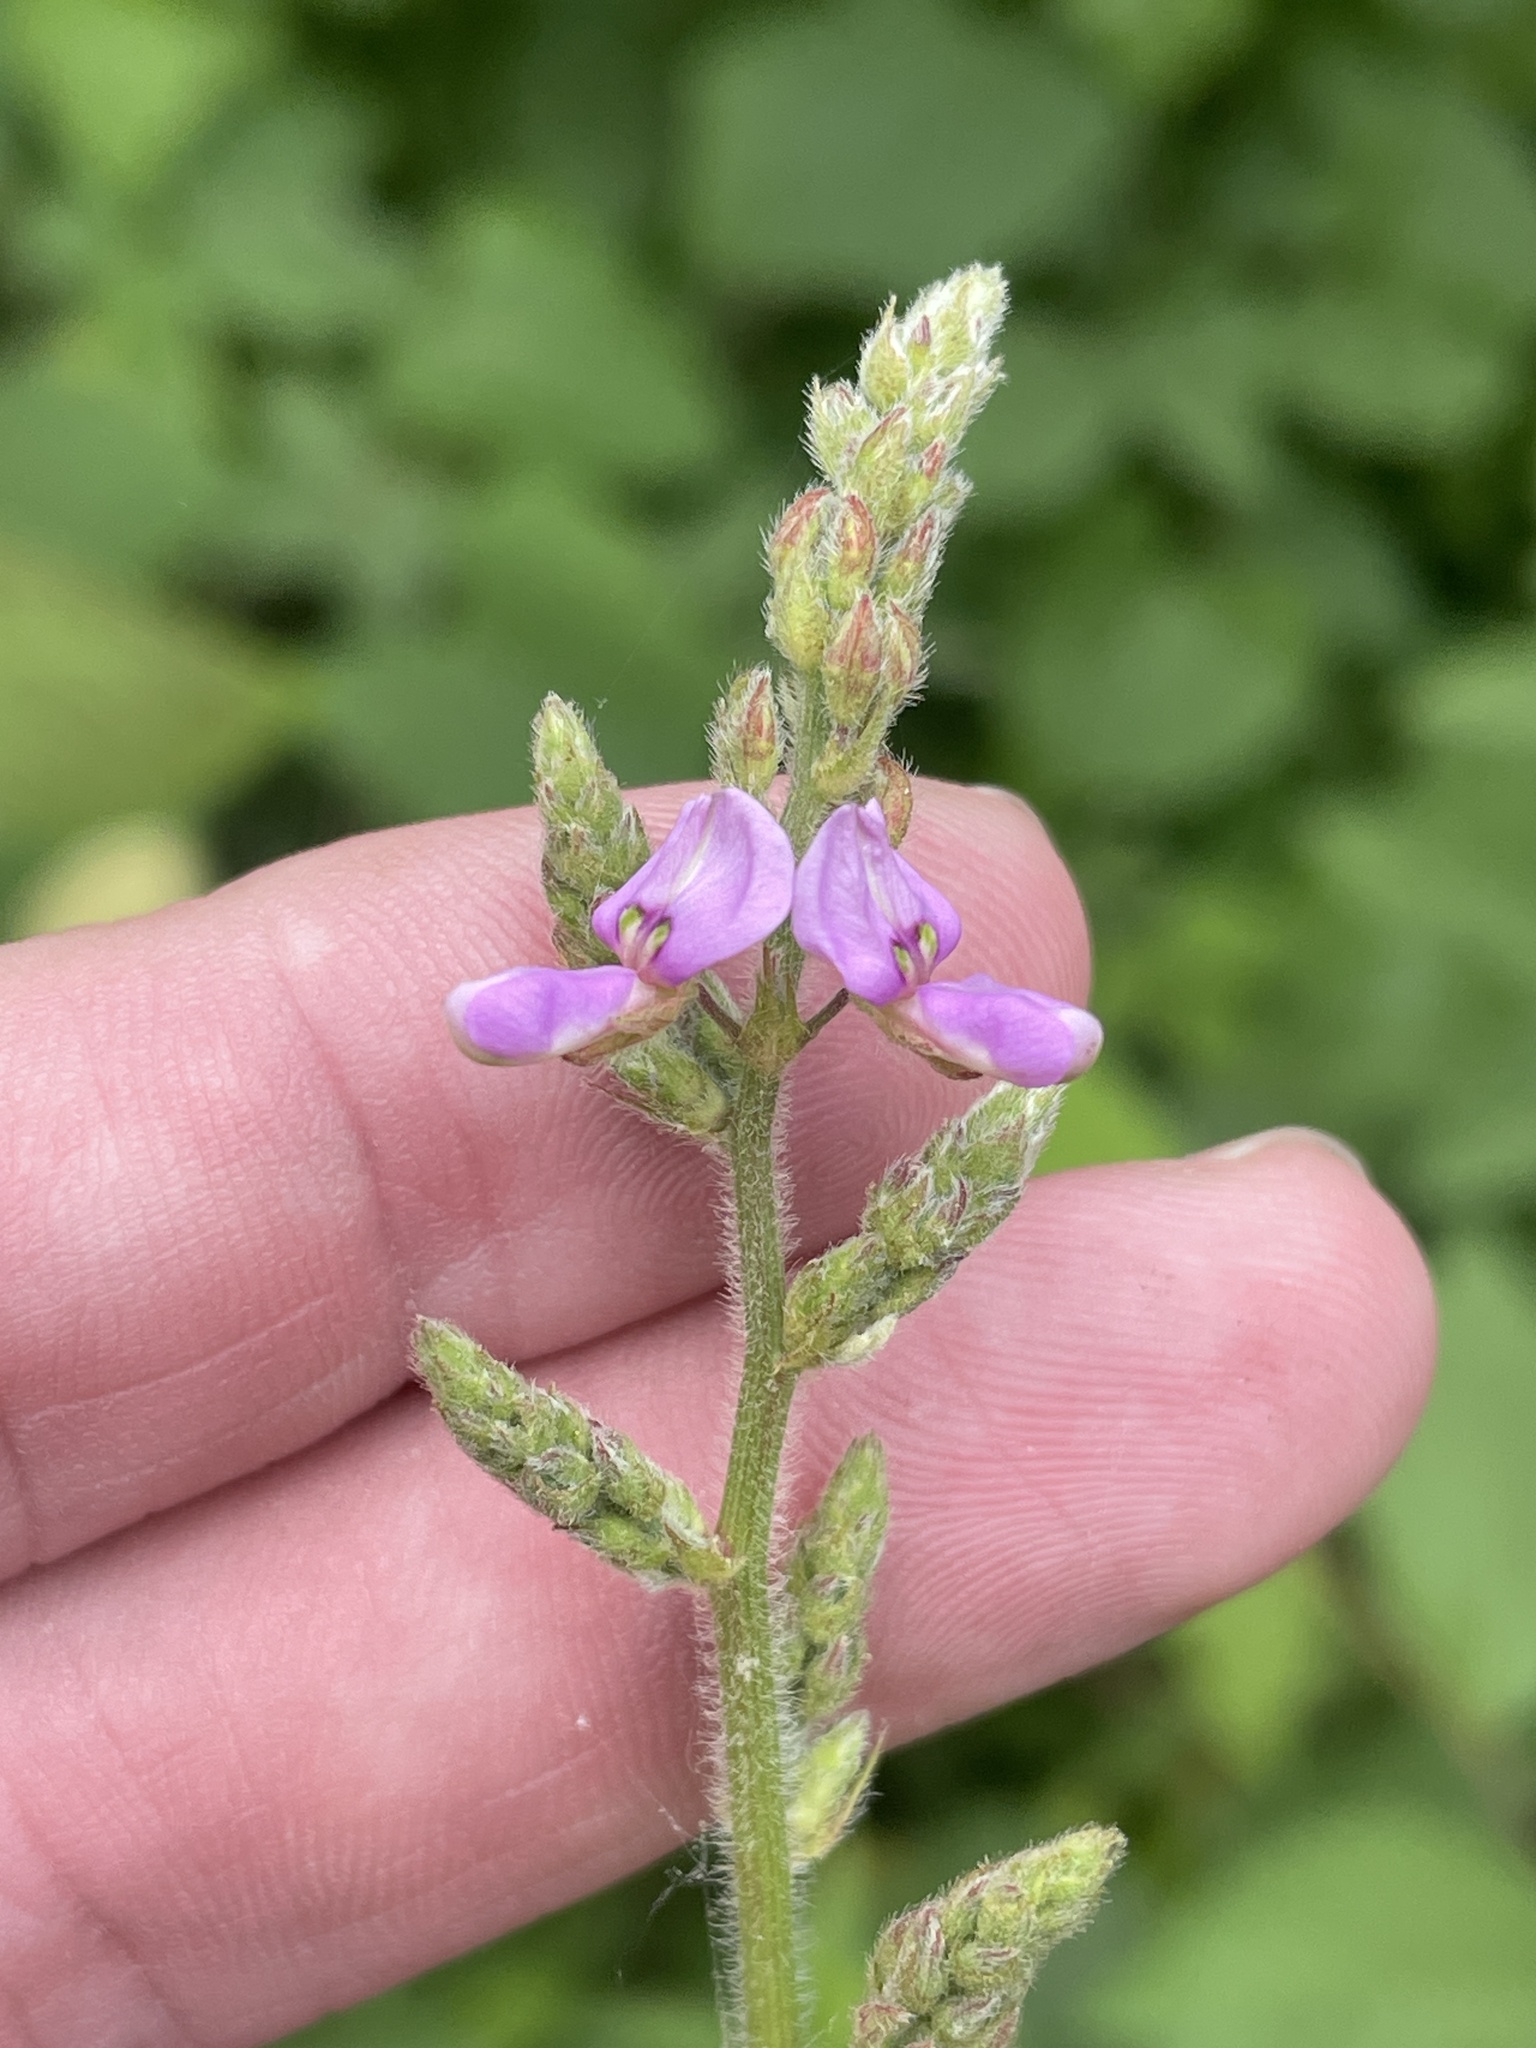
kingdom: Plantae
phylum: Tracheophyta
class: Magnoliopsida
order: Fabales
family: Fabaceae
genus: Desmodium
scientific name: Desmodium canescens
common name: Hoary tick-clover
